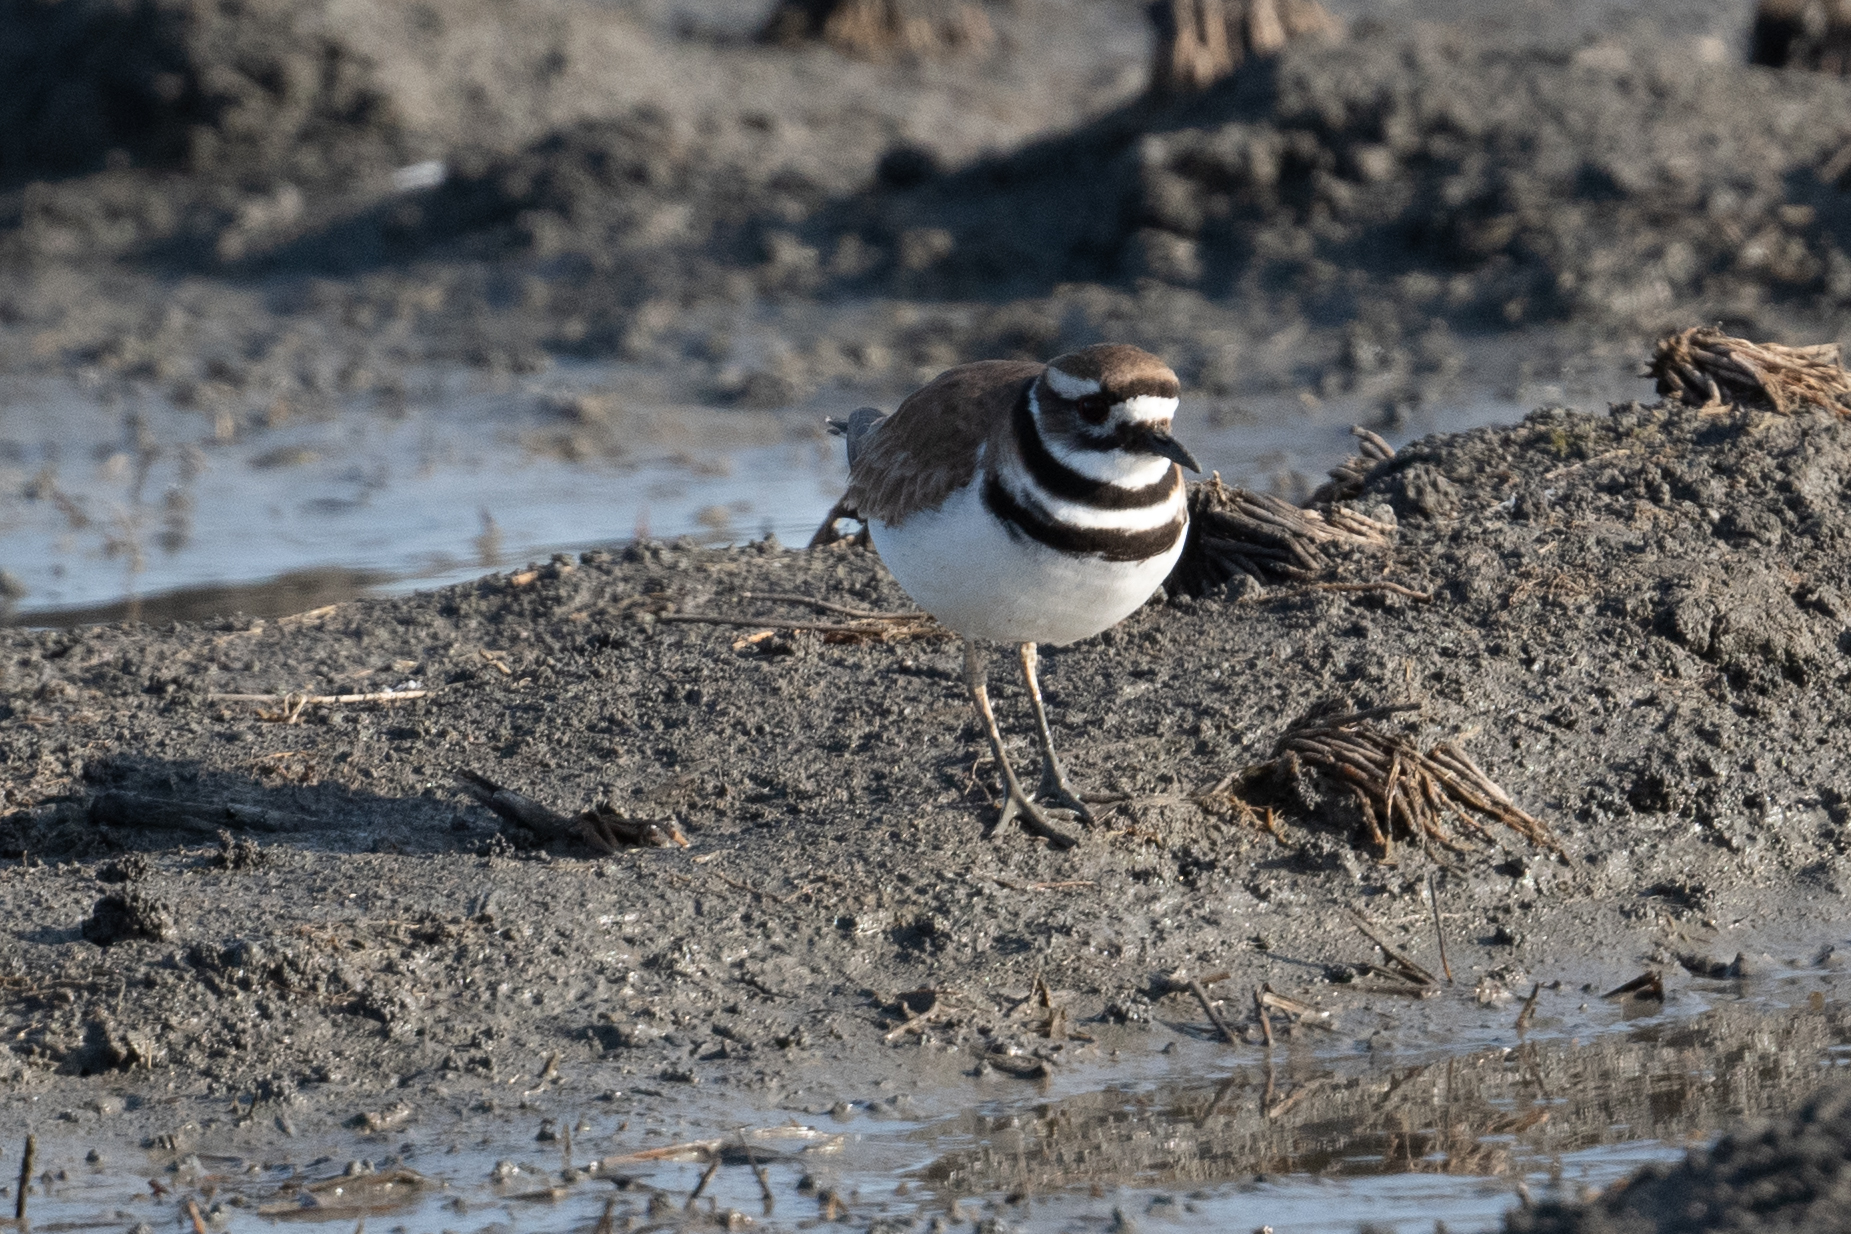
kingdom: Animalia
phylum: Chordata
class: Aves
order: Charadriiformes
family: Charadriidae
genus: Charadrius
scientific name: Charadrius vociferus
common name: Killdeer
